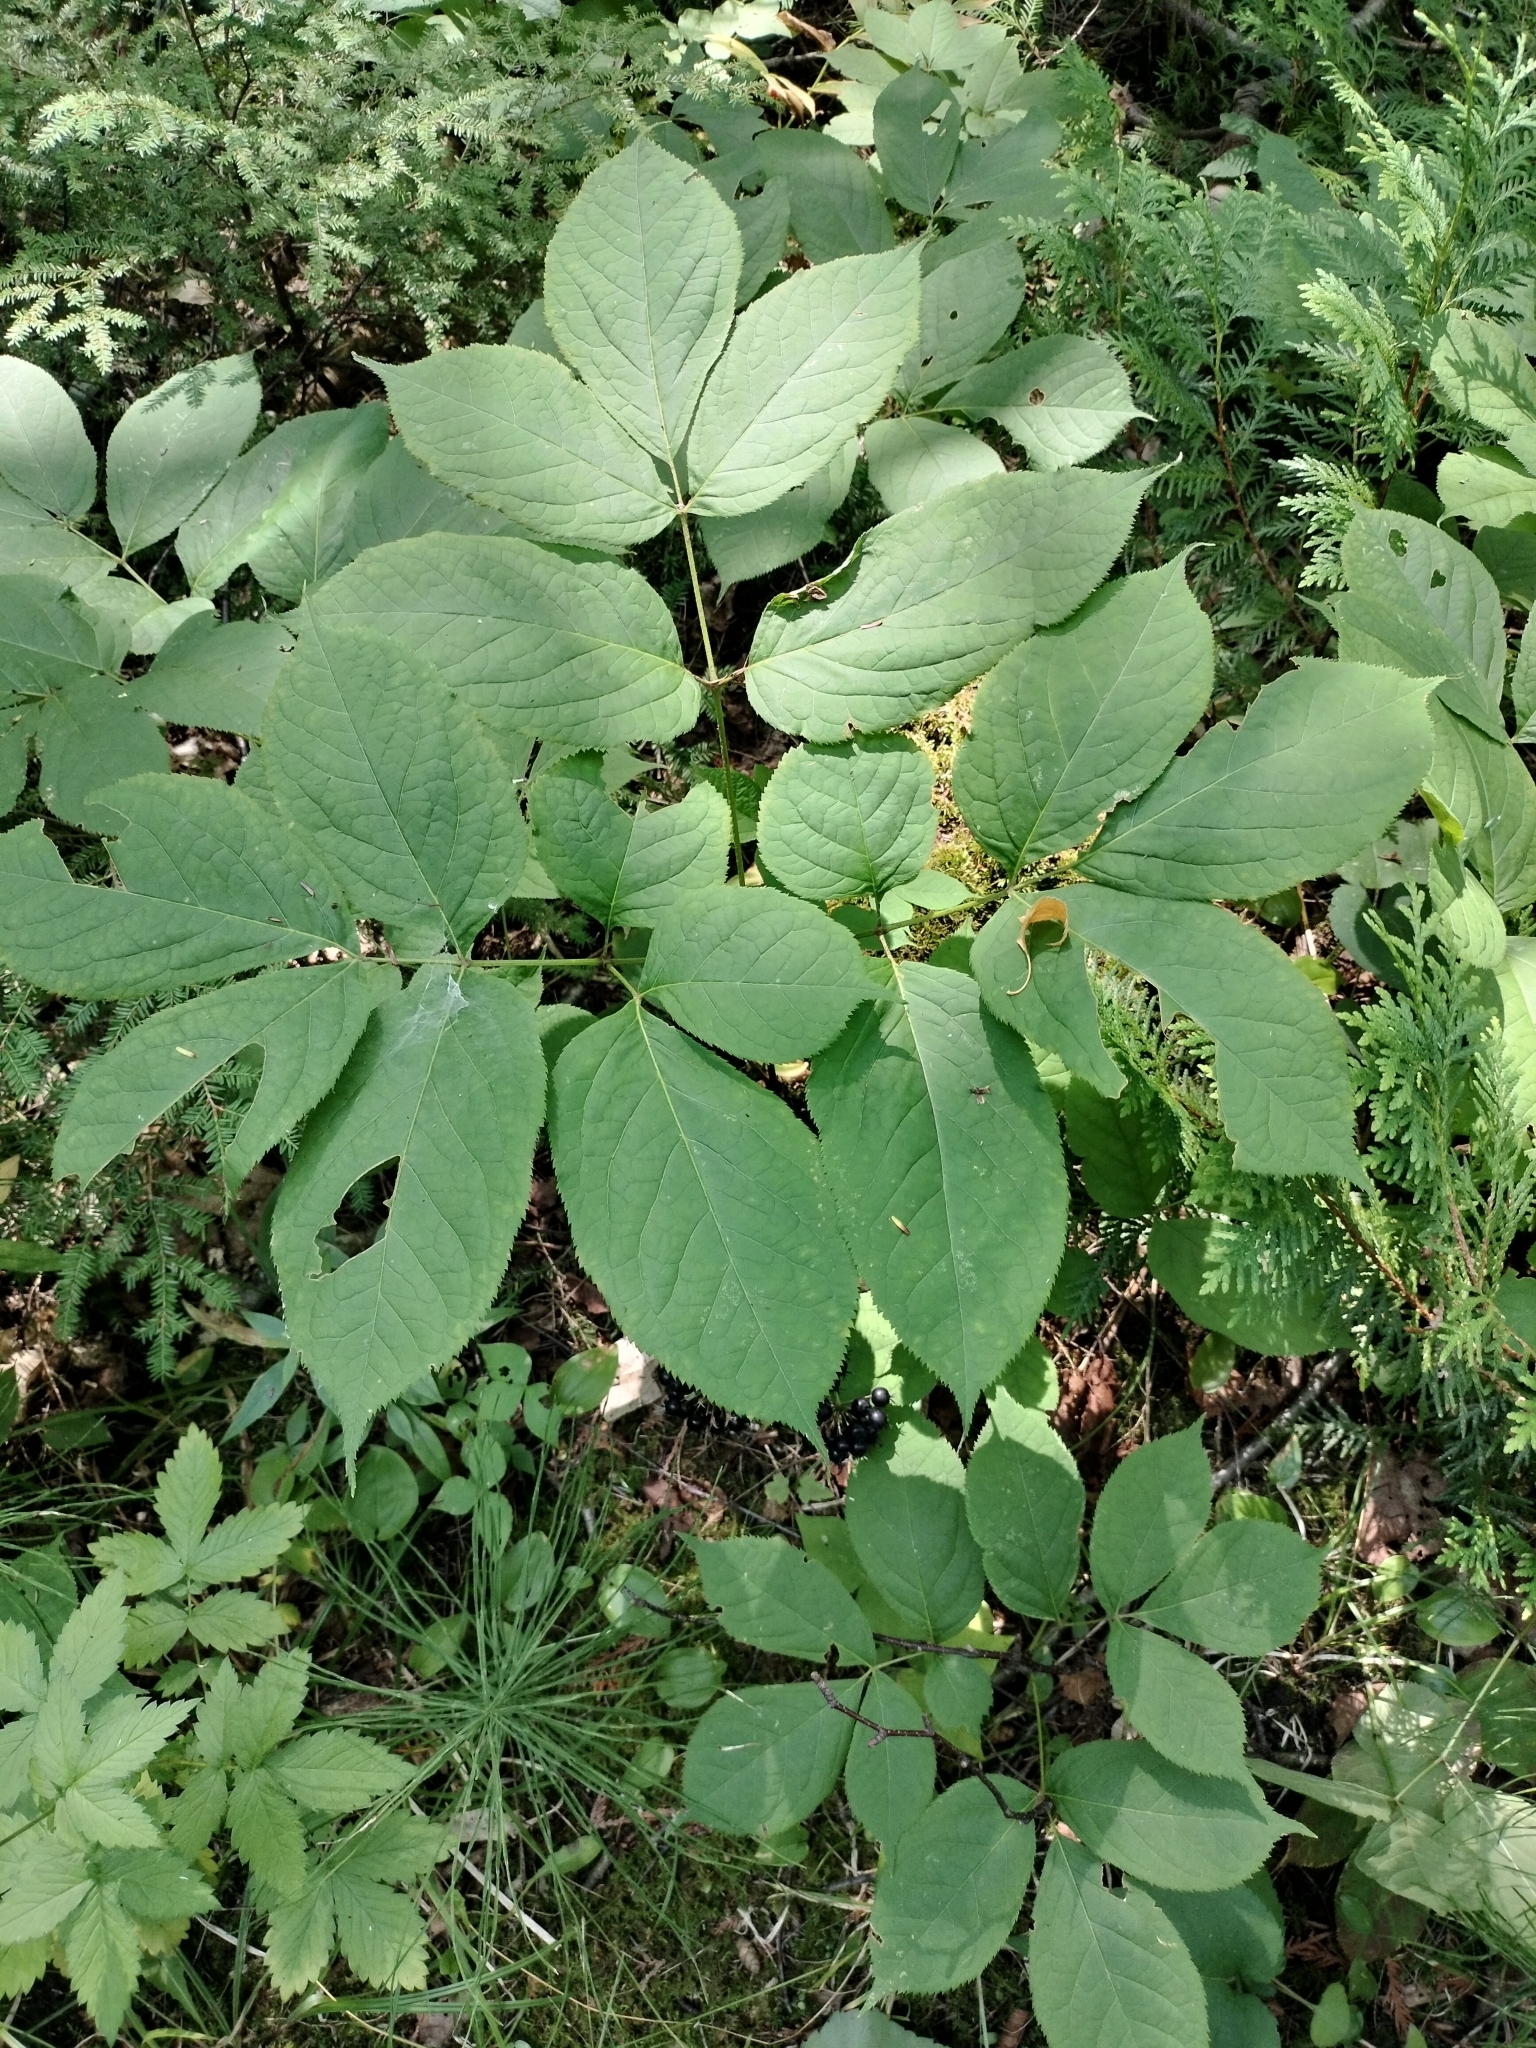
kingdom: Plantae
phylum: Tracheophyta
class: Magnoliopsida
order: Apiales
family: Araliaceae
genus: Aralia
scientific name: Aralia nudicaulis
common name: Wild sarsaparilla
